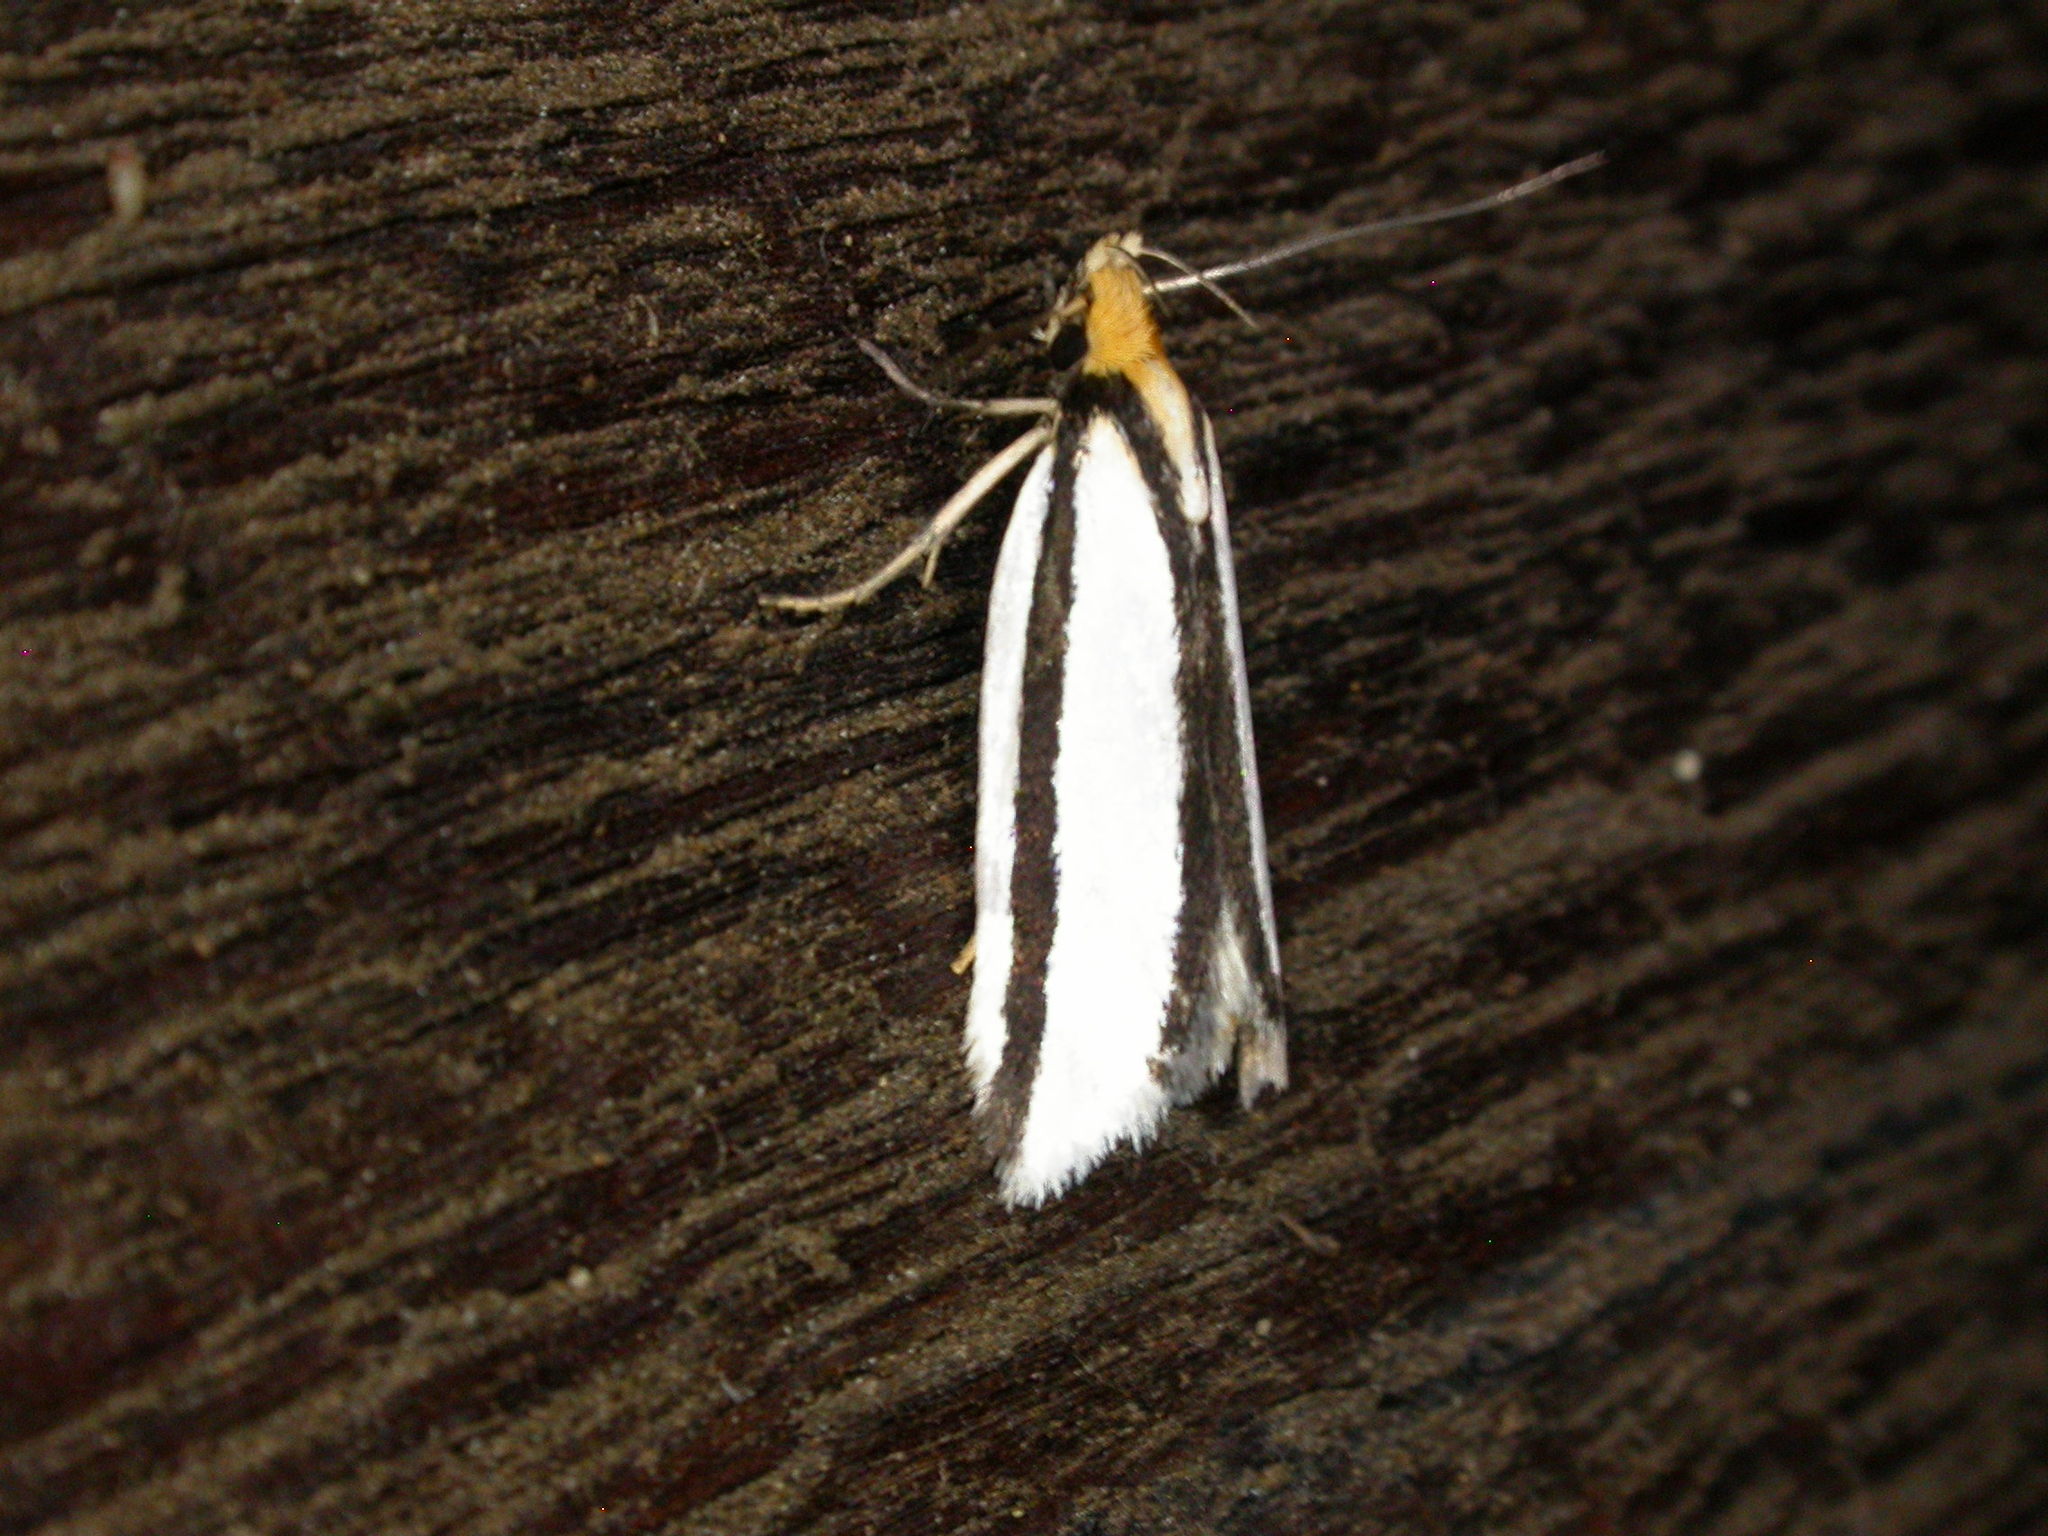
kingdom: Animalia
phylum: Arthropoda
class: Insecta
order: Lepidoptera
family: Xyloryctidae
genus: Xylorycta
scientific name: Xylorycta stereodesma
